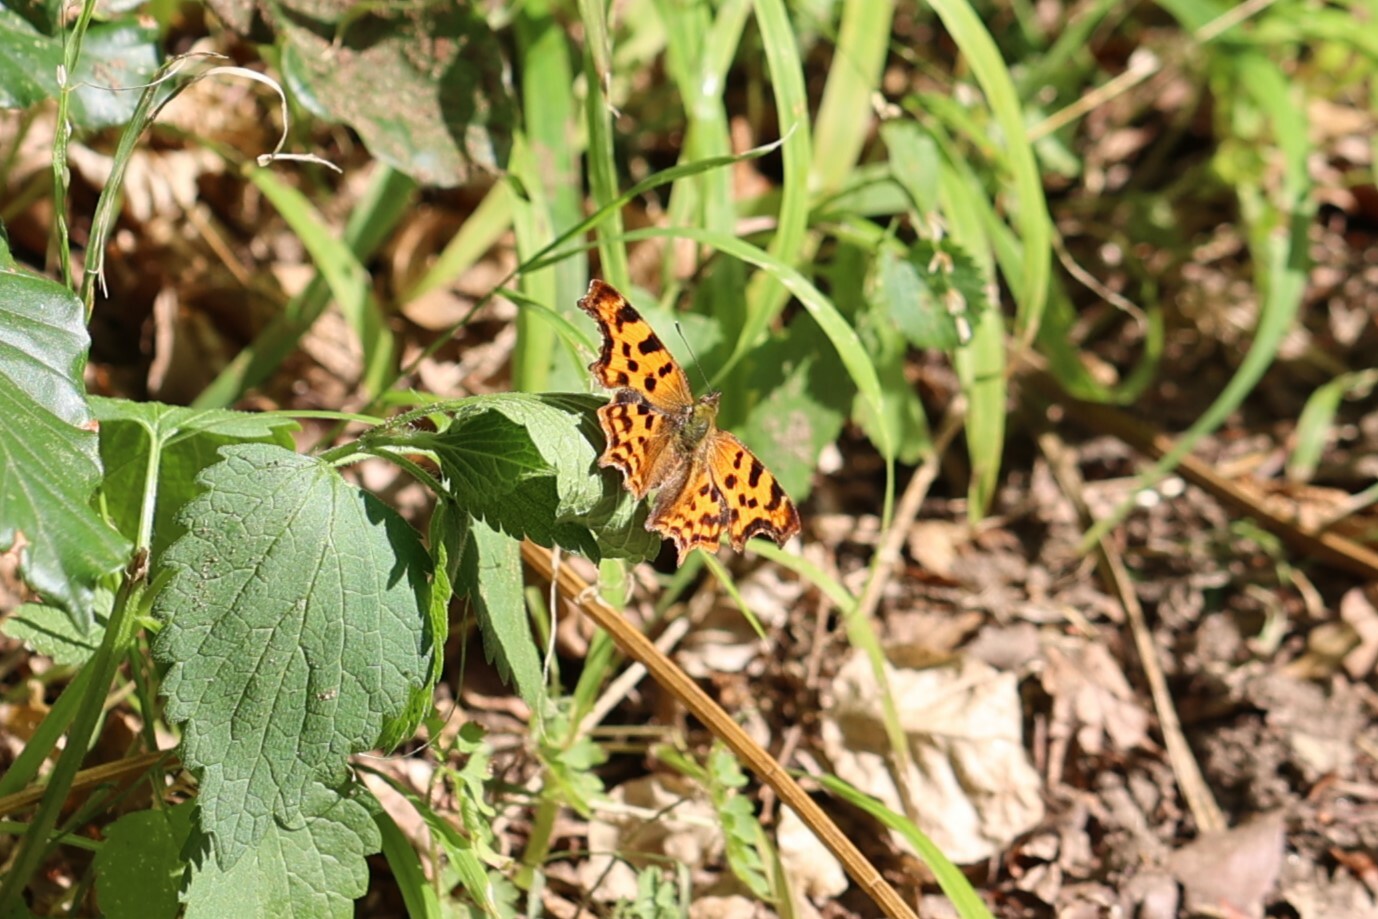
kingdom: Animalia
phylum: Arthropoda
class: Insecta
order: Lepidoptera
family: Nymphalidae
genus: Polygonia
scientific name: Polygonia c-album
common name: Comma
